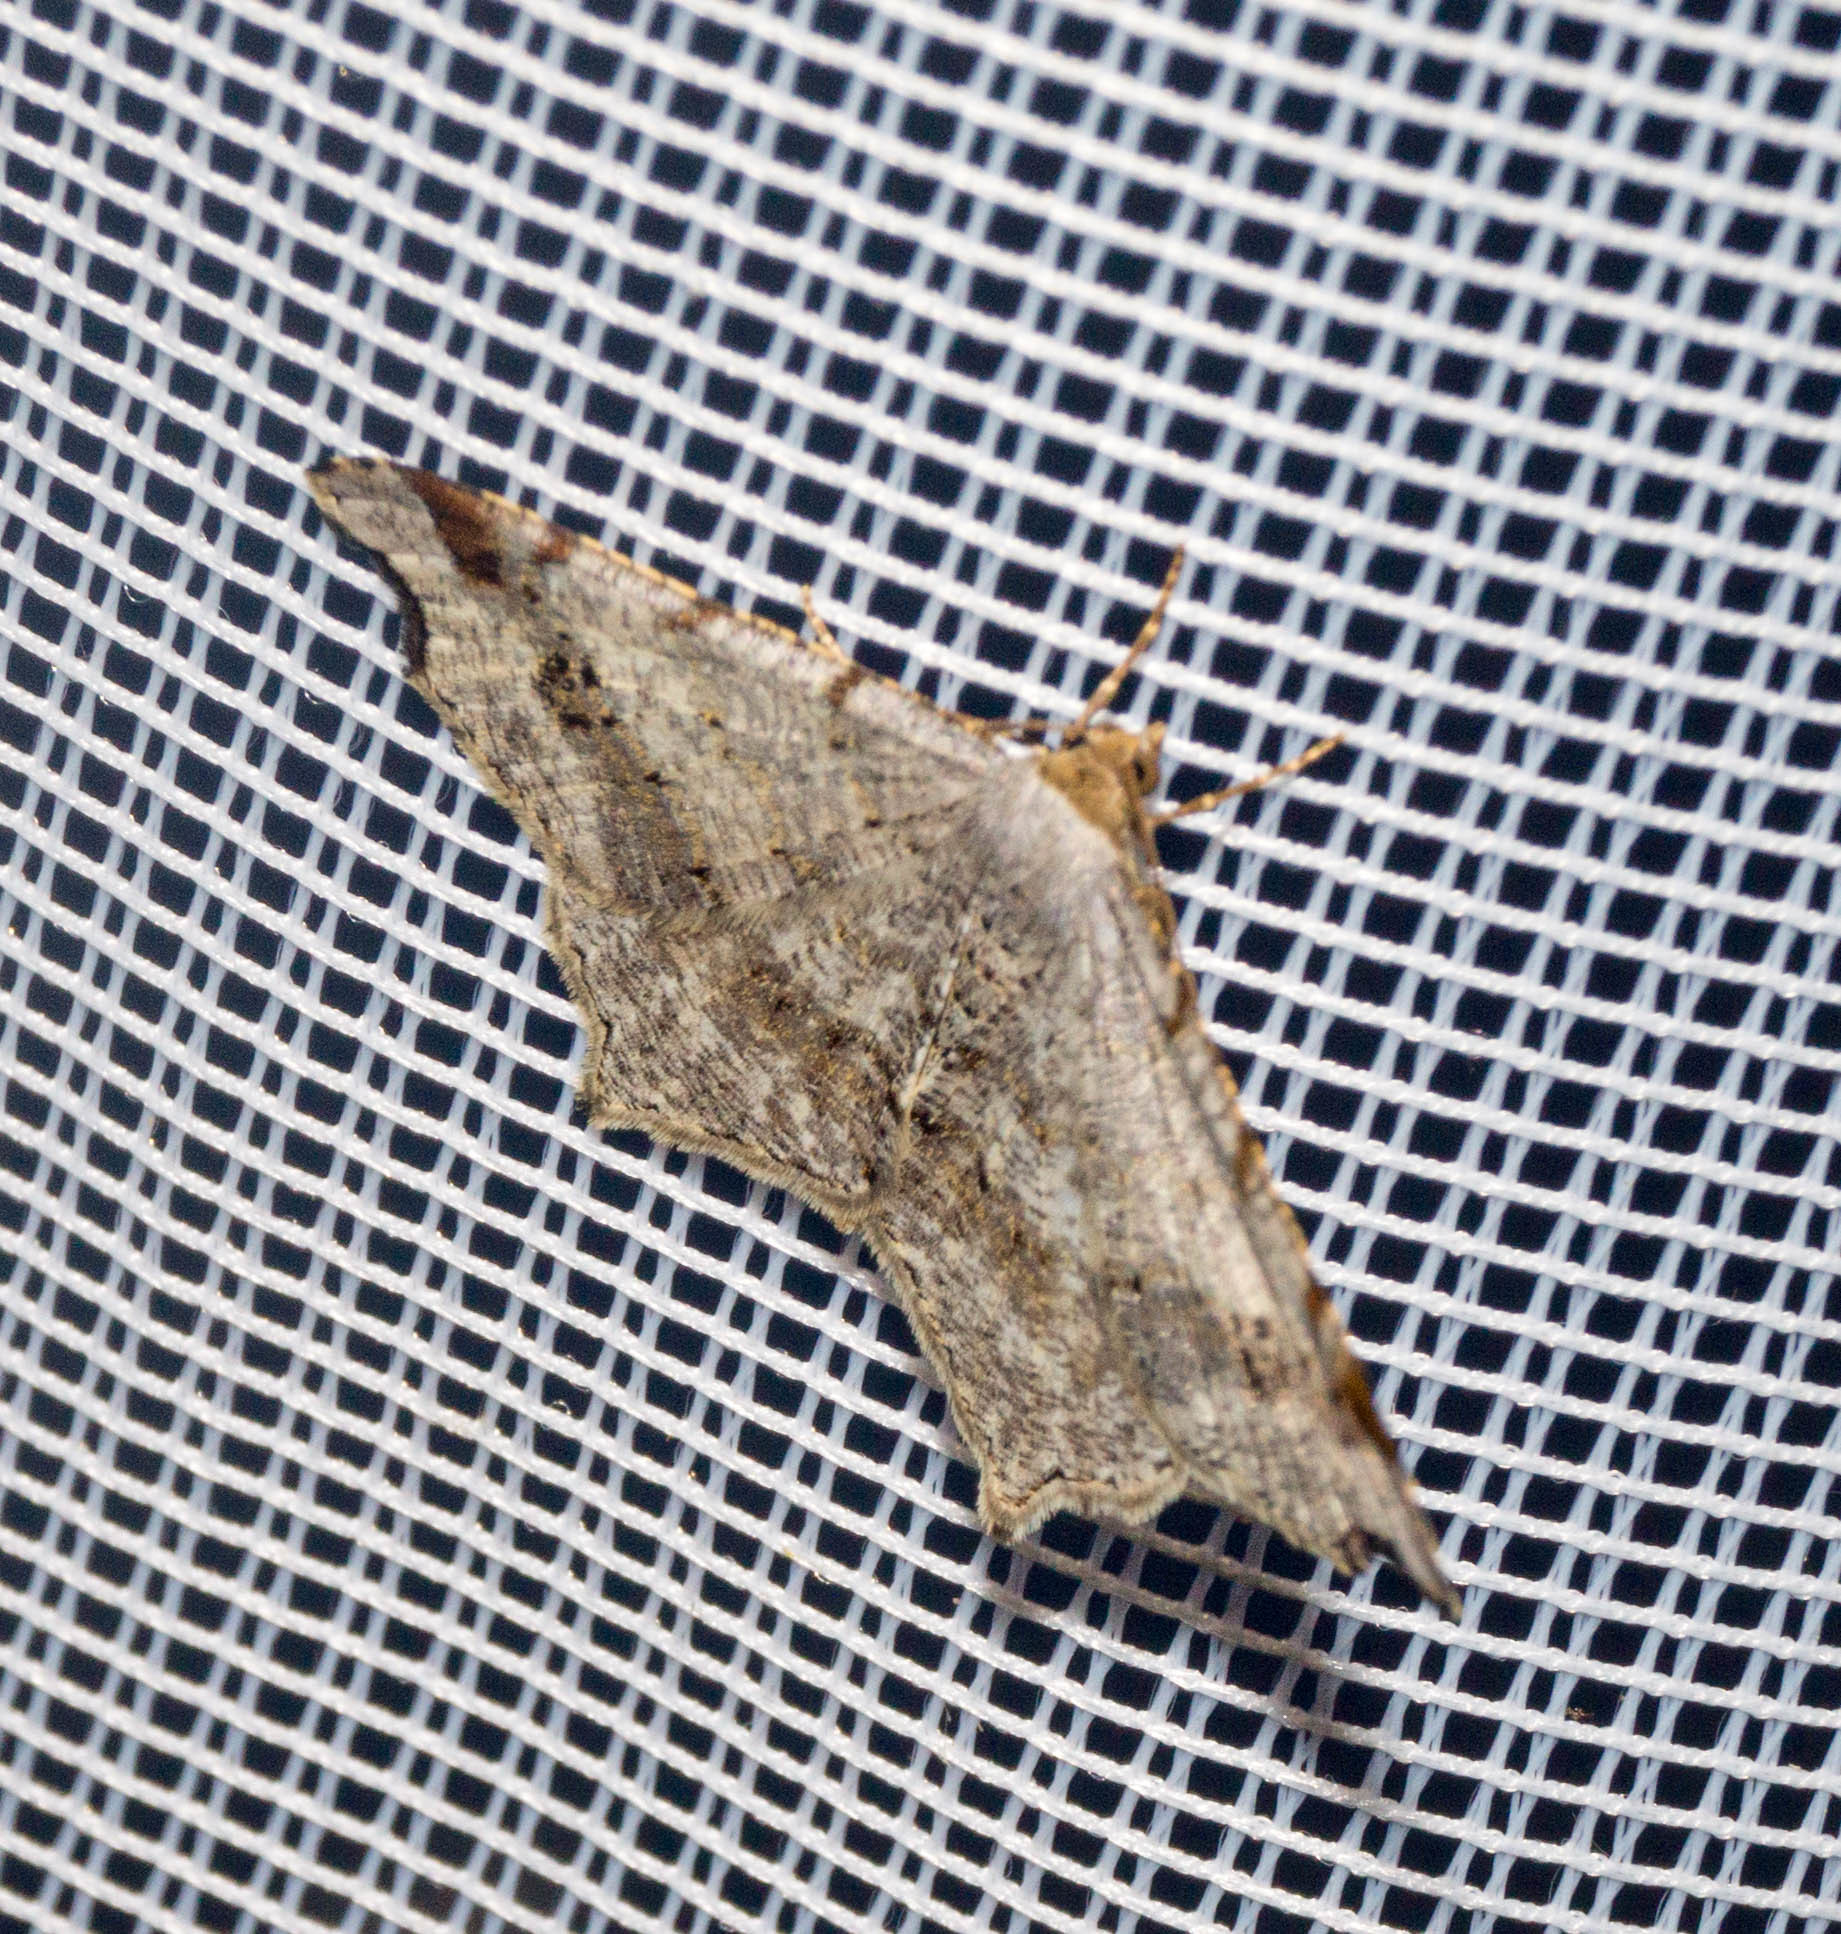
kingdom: Animalia
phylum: Arthropoda
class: Insecta
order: Lepidoptera
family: Geometridae
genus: Macaria
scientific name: Macaria alternata
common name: Sharp-angled peacock
